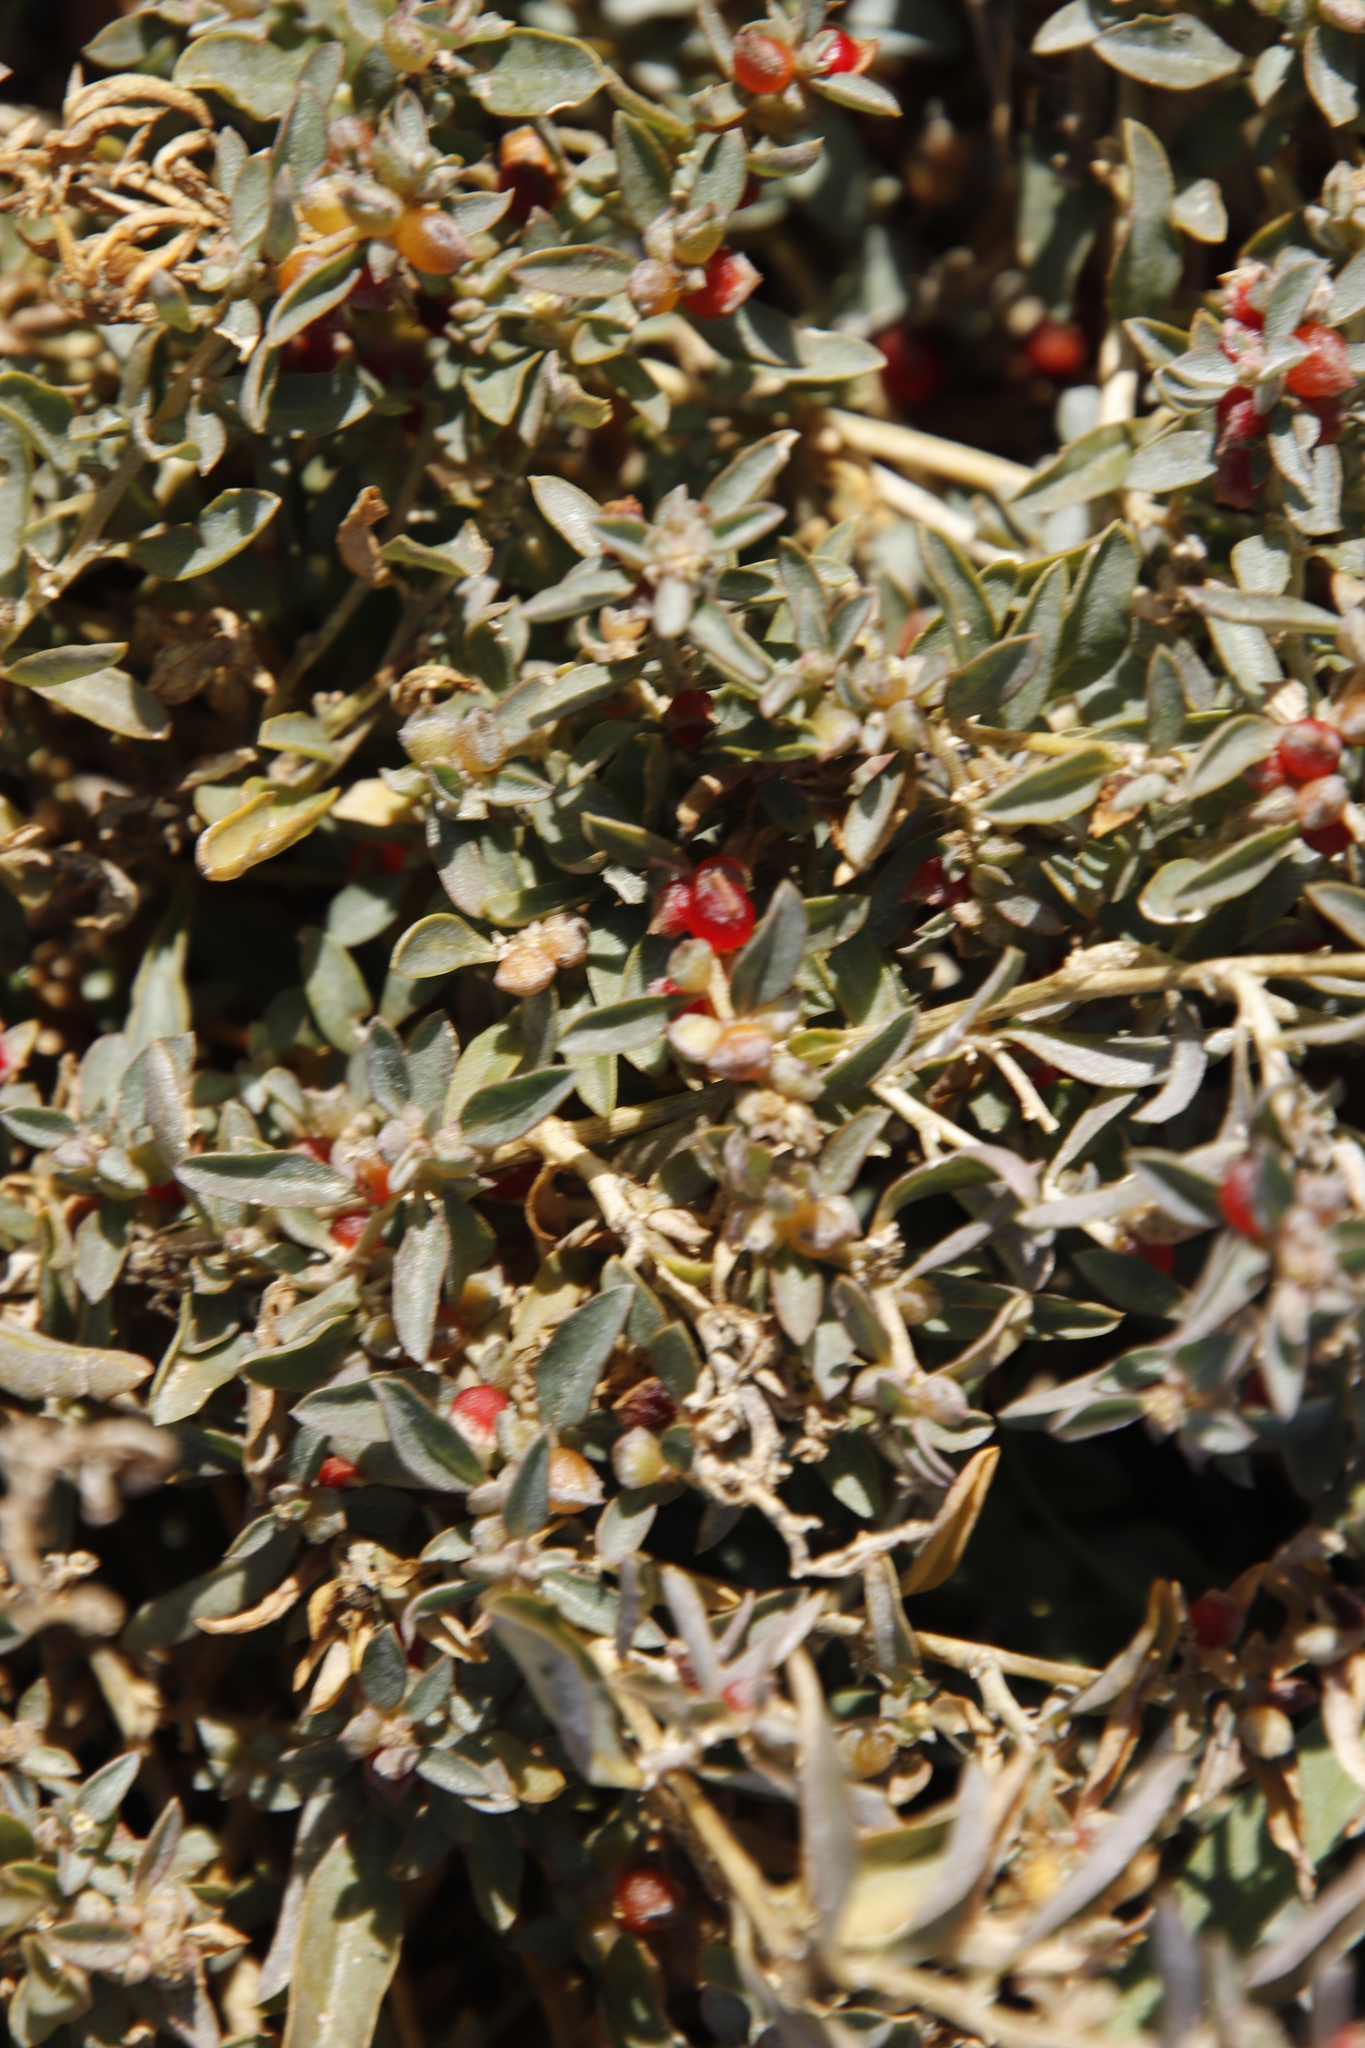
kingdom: Plantae
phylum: Tracheophyta
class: Magnoliopsida
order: Caryophyllales
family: Amaranthaceae
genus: Atriplex
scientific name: Atriplex semibaccata
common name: Australian saltbush
